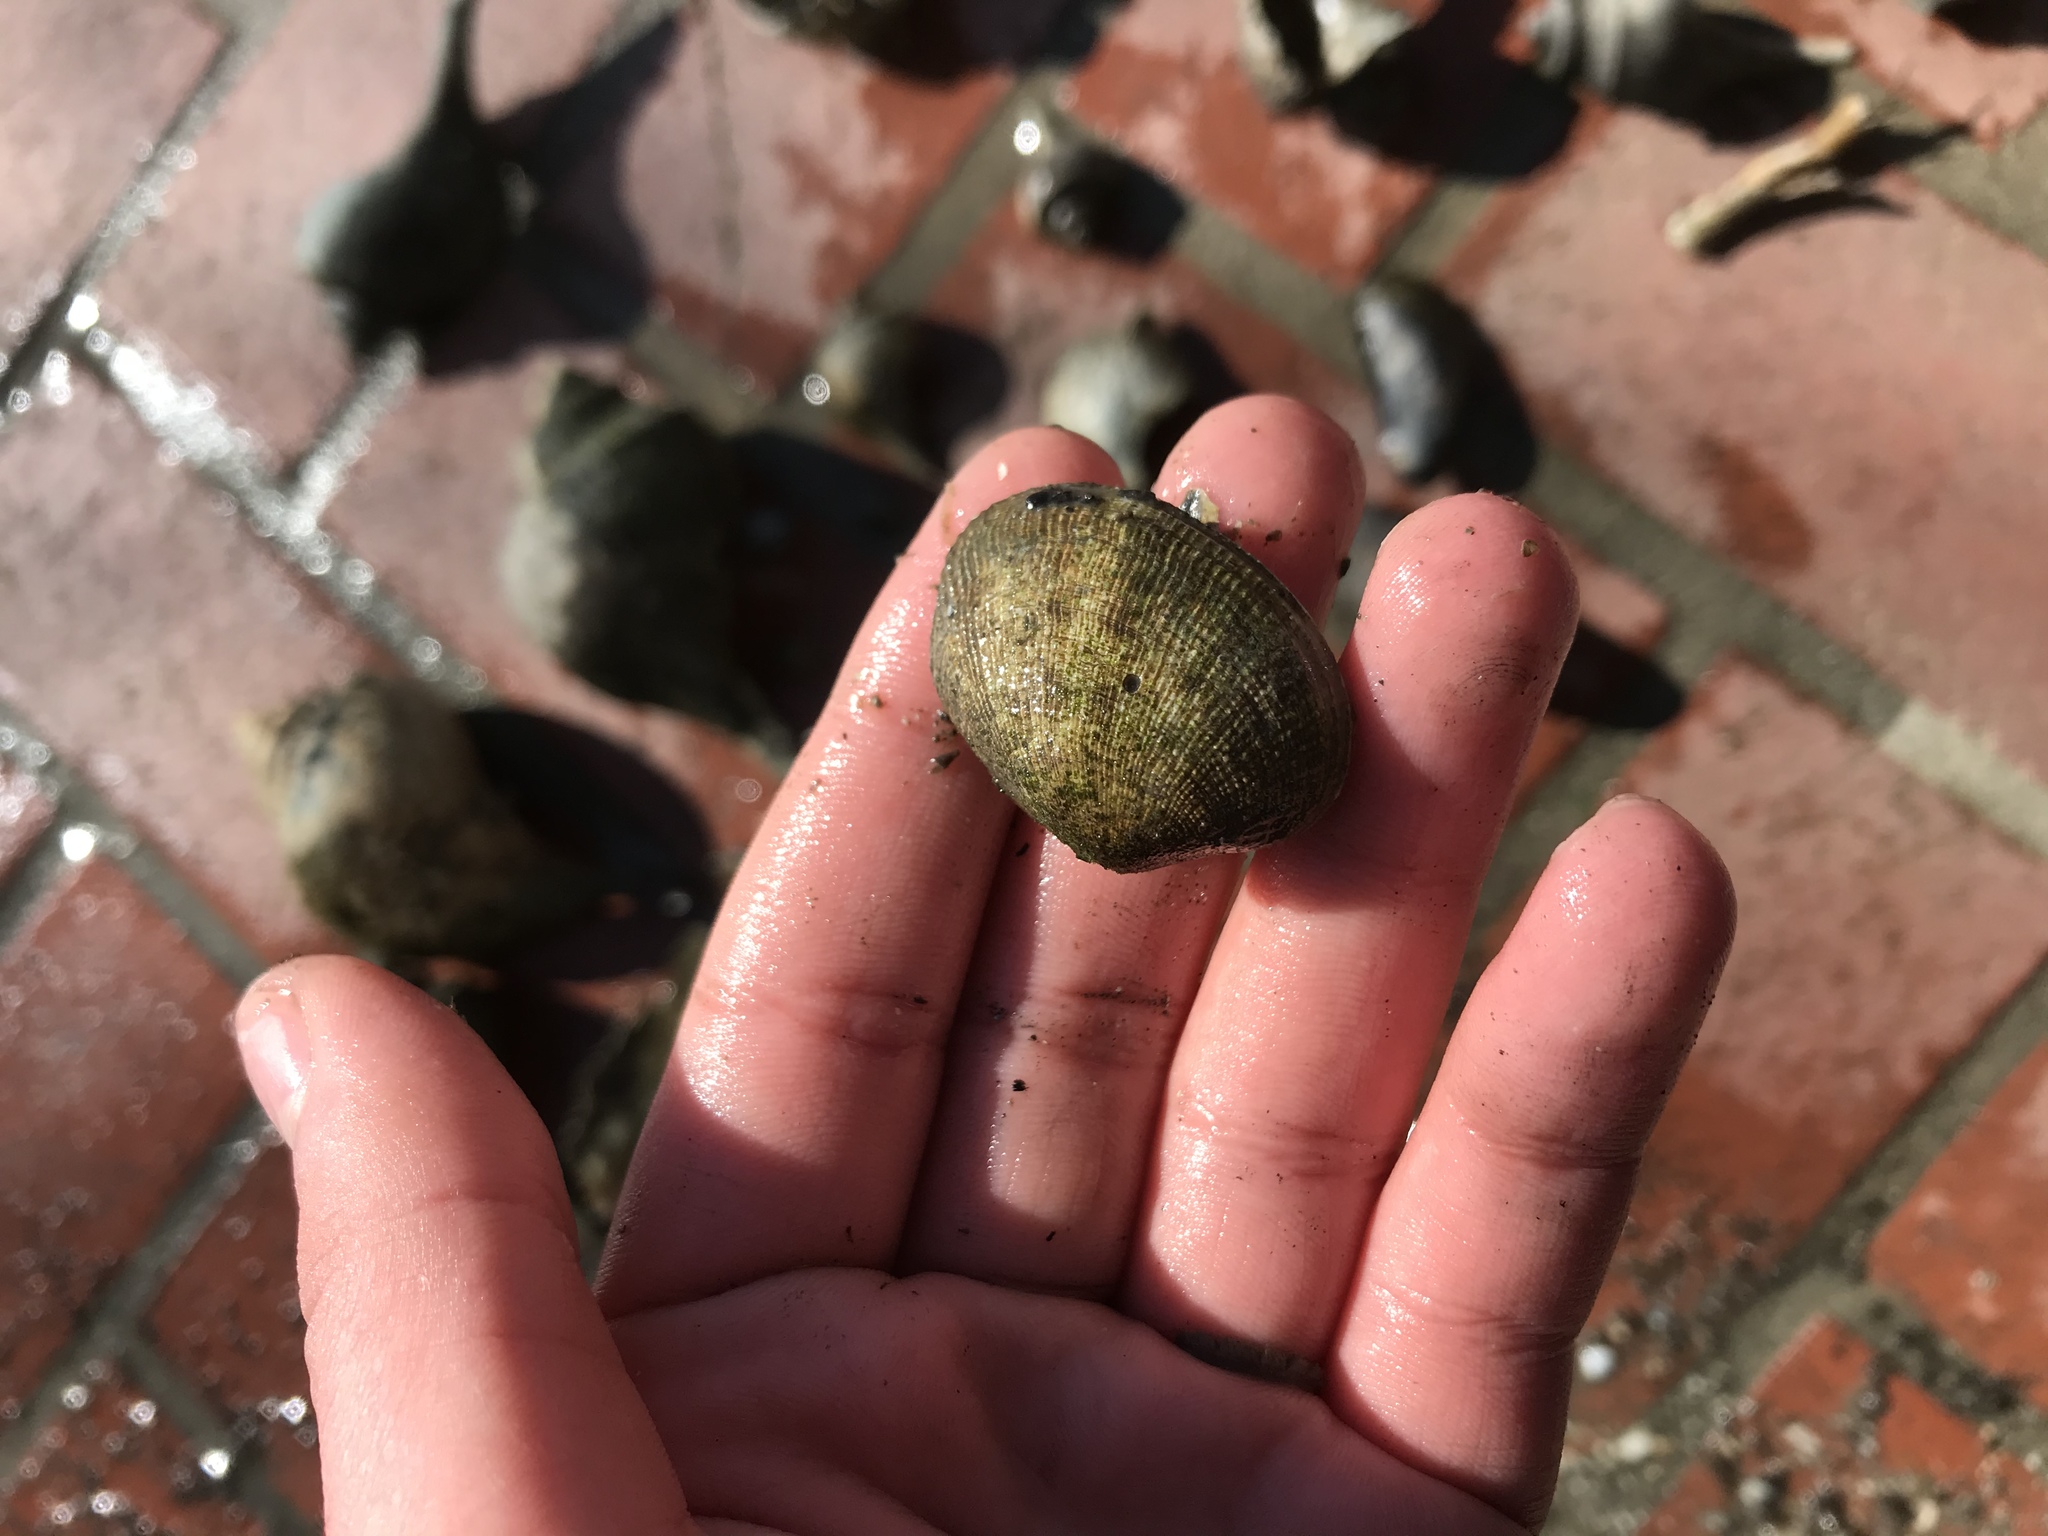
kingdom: Animalia
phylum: Mollusca
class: Bivalvia
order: Venerida
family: Veneridae
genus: Ruditapes
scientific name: Ruditapes philippinarum
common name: Manila clam
